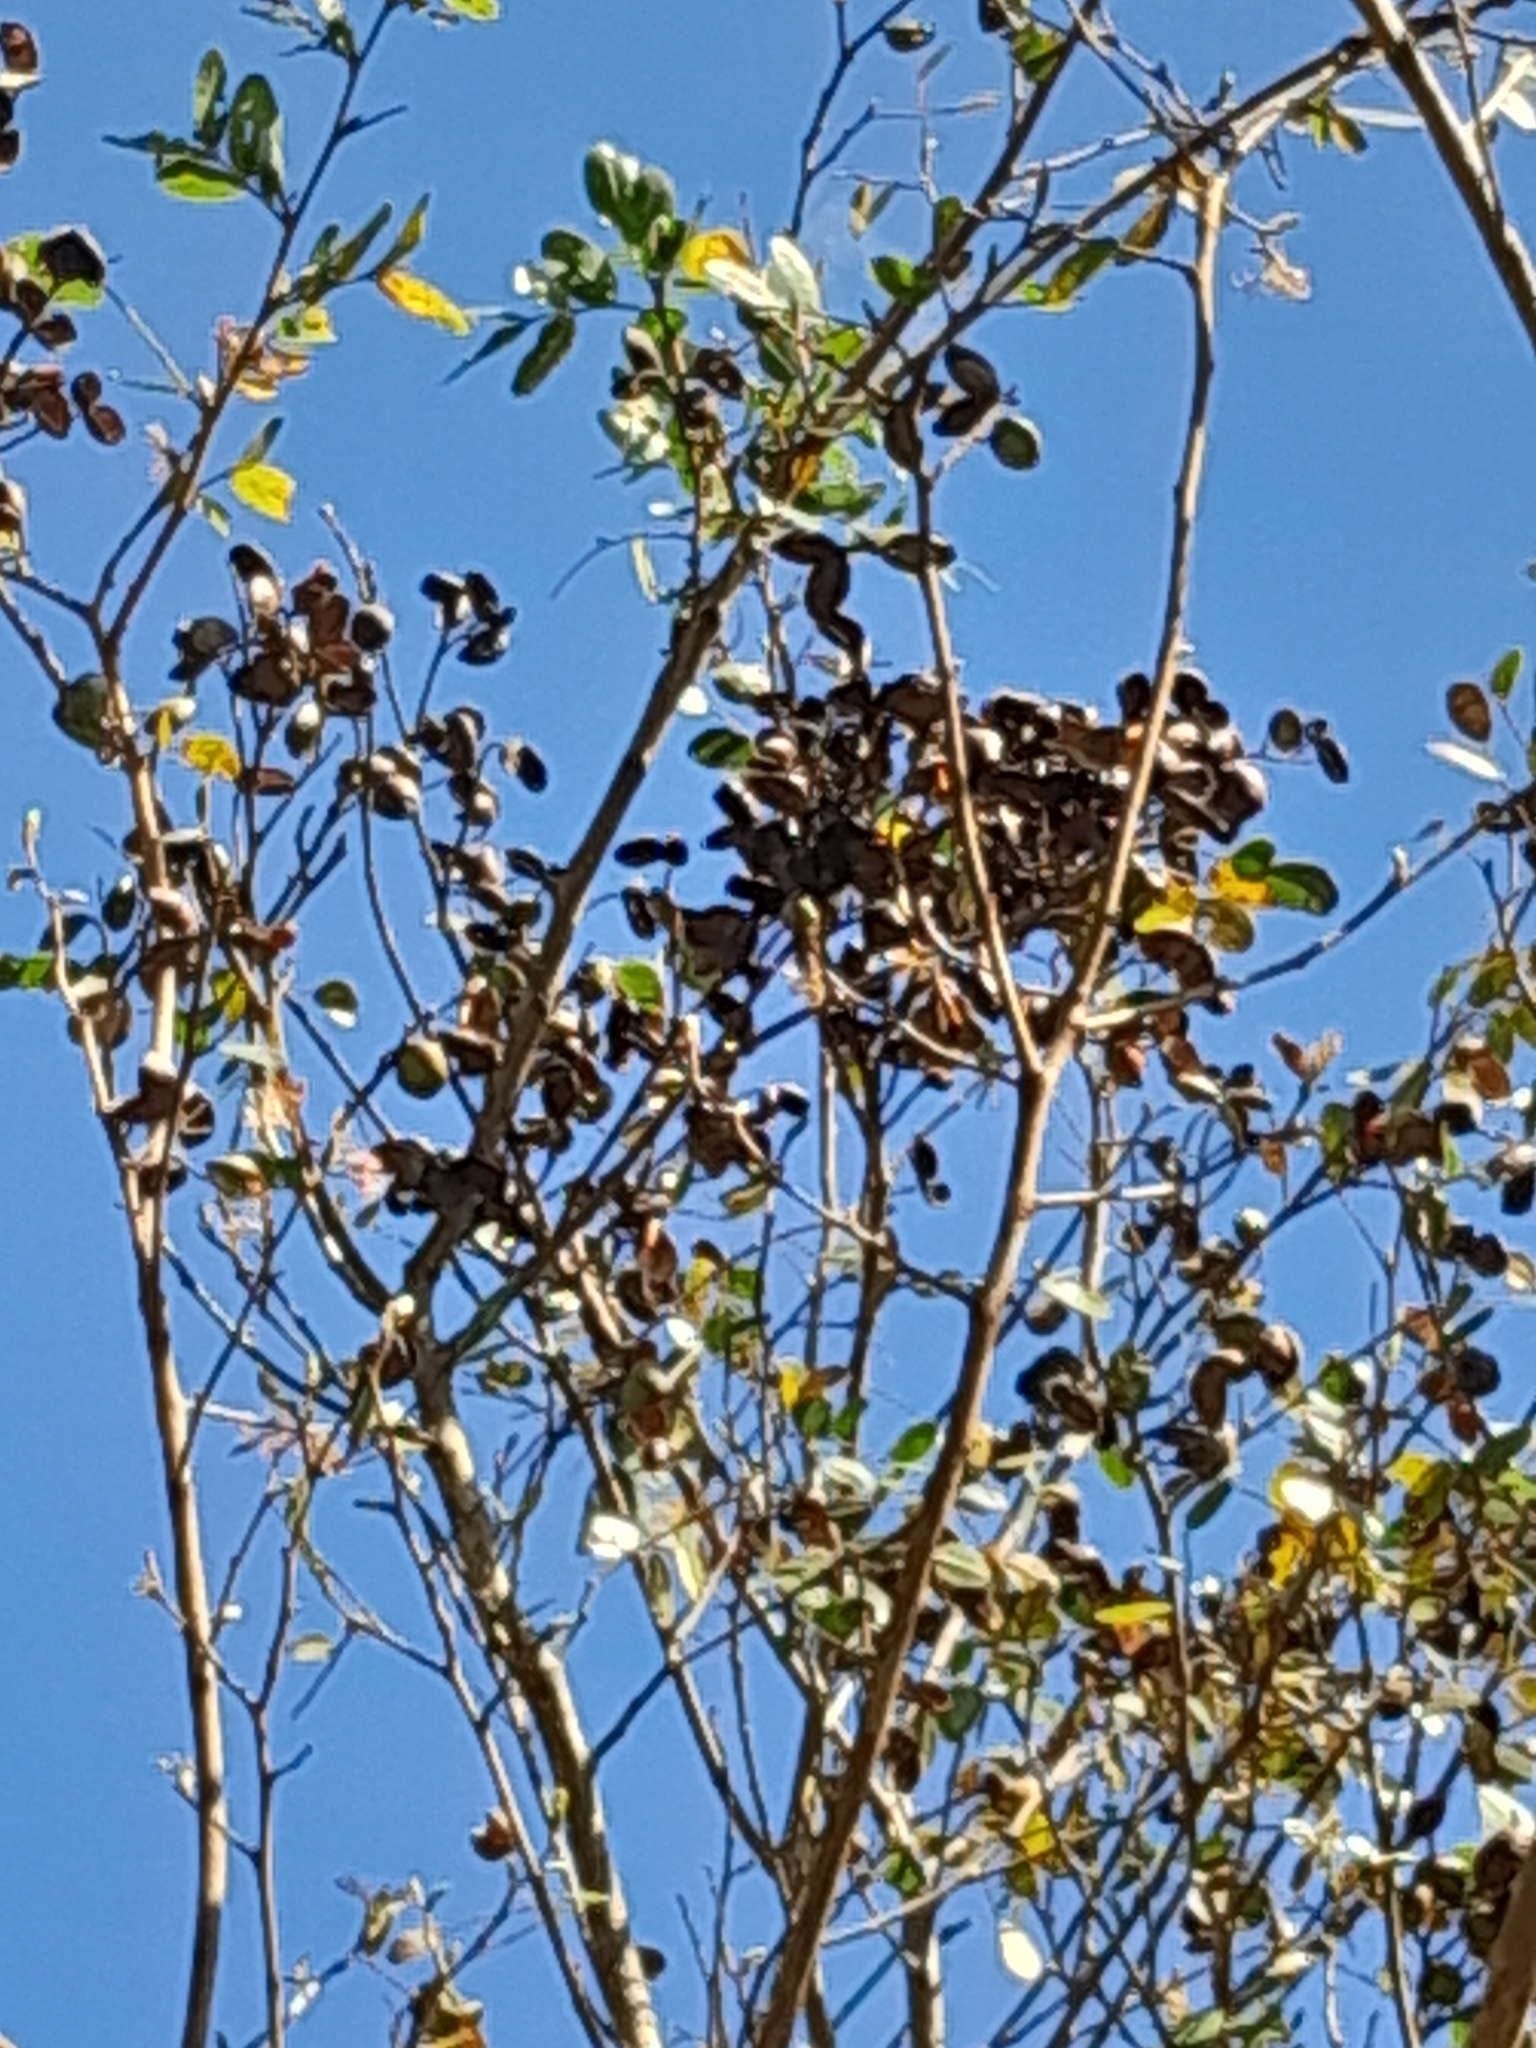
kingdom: Plantae
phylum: Tracheophyta
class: Magnoliopsida
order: Fabales
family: Fabaceae
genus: Copaifera
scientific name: Copaifera langsdorffii
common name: Brazilian diesel tree
